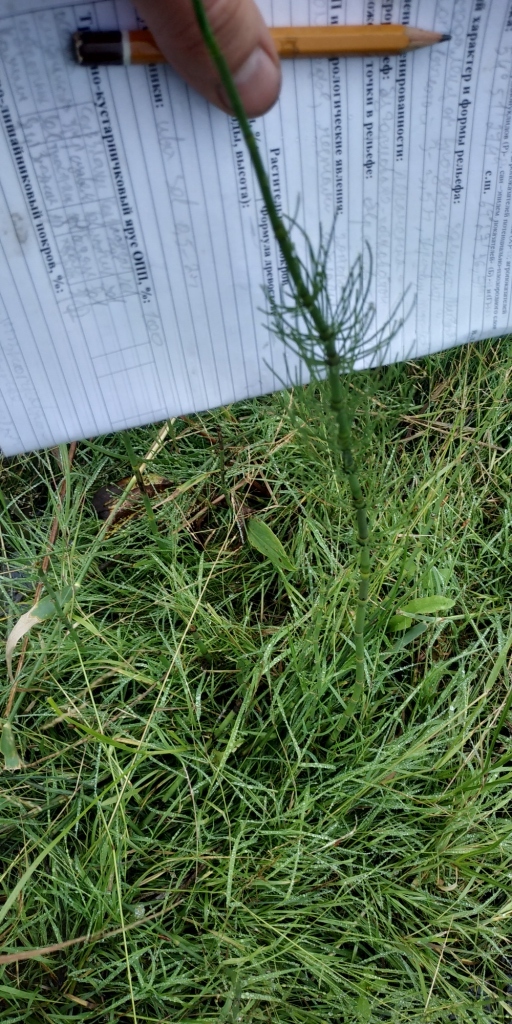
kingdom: Plantae
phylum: Tracheophyta
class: Polypodiopsida
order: Equisetales
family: Equisetaceae
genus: Equisetum
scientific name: Equisetum fluviatile
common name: Water horsetail
